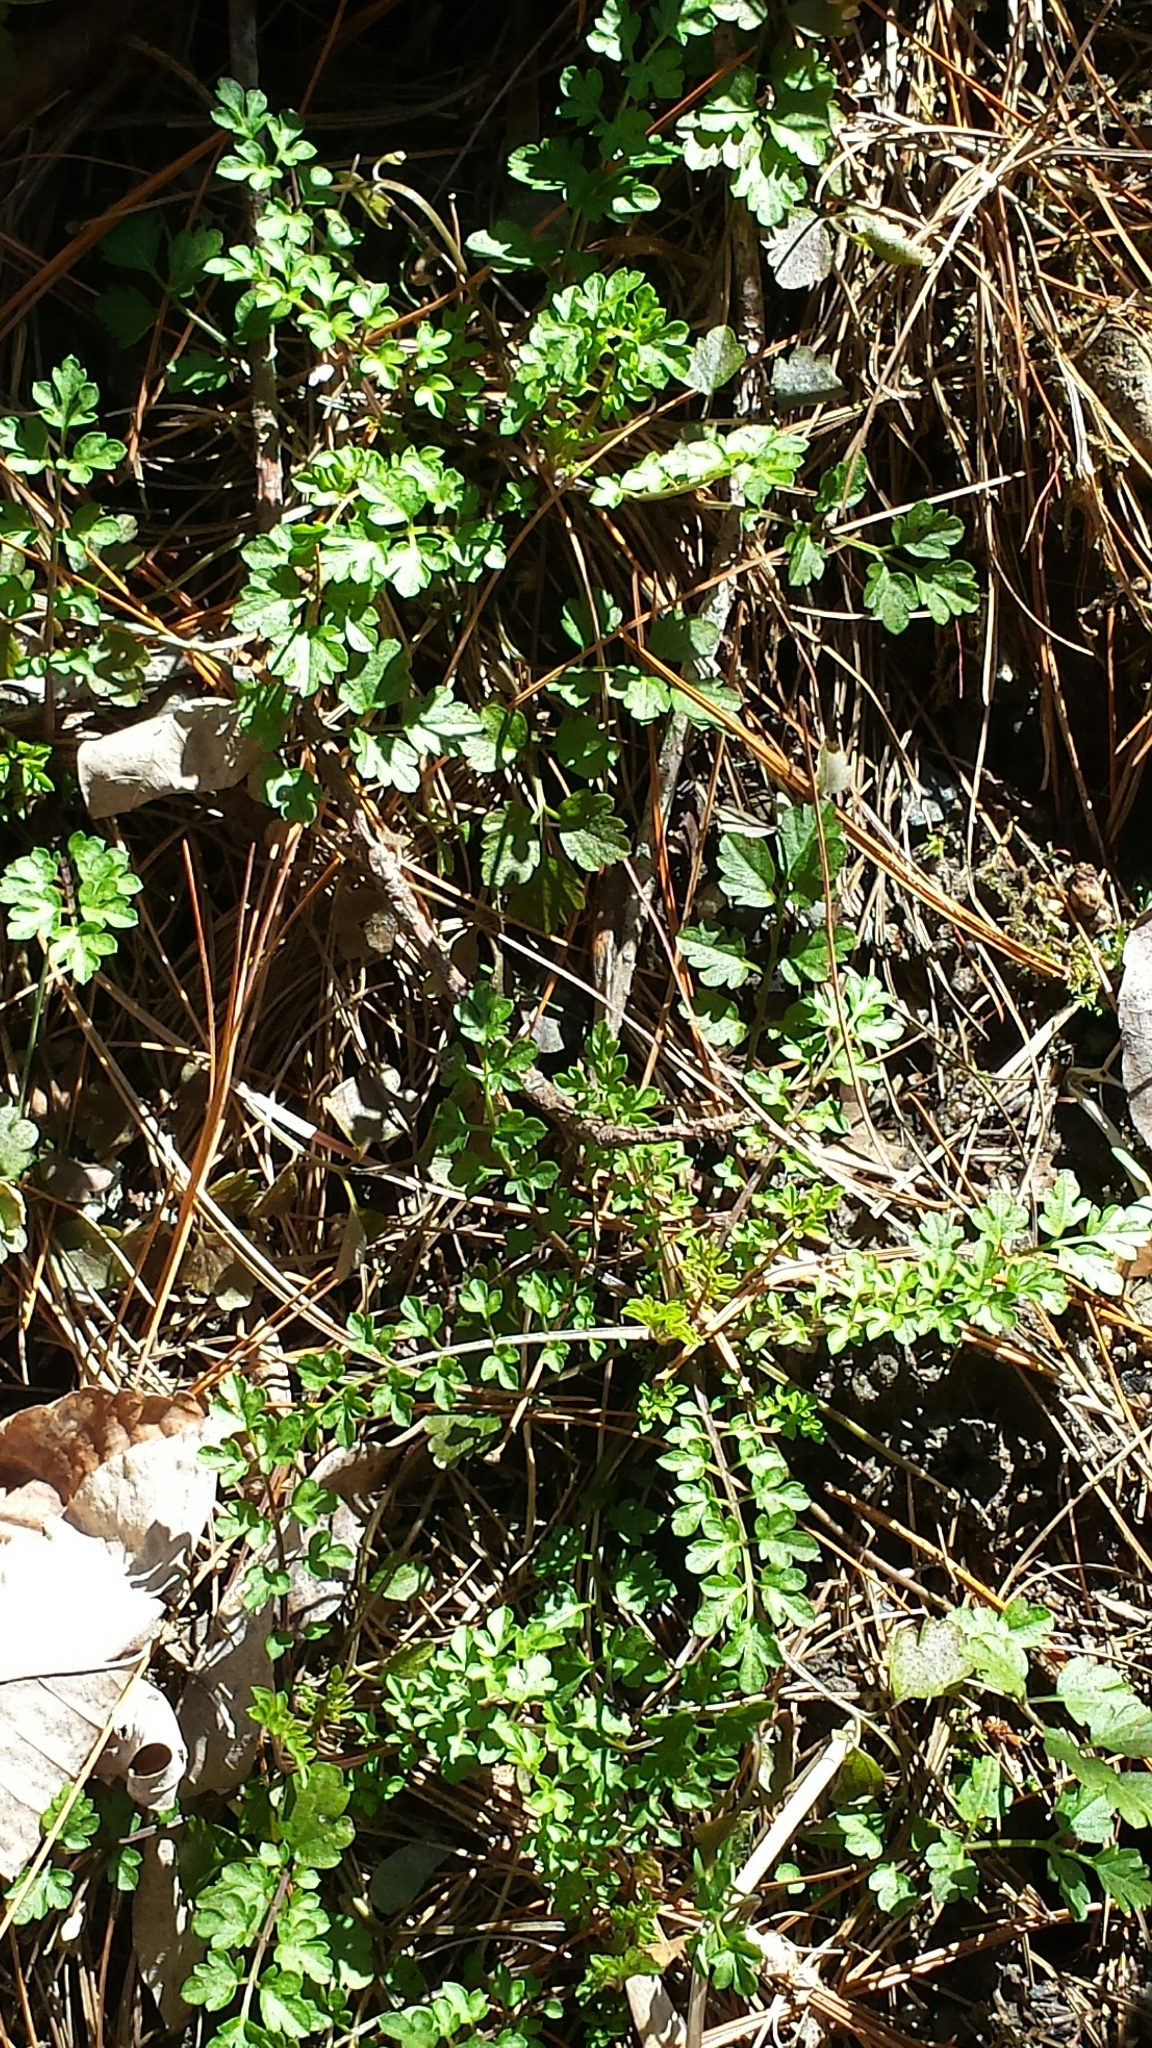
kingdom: Plantae
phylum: Tracheophyta
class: Magnoliopsida
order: Brassicales
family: Brassicaceae
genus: Cardamine
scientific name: Cardamine impatiens
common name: Narrow-leaved bitter-cress
